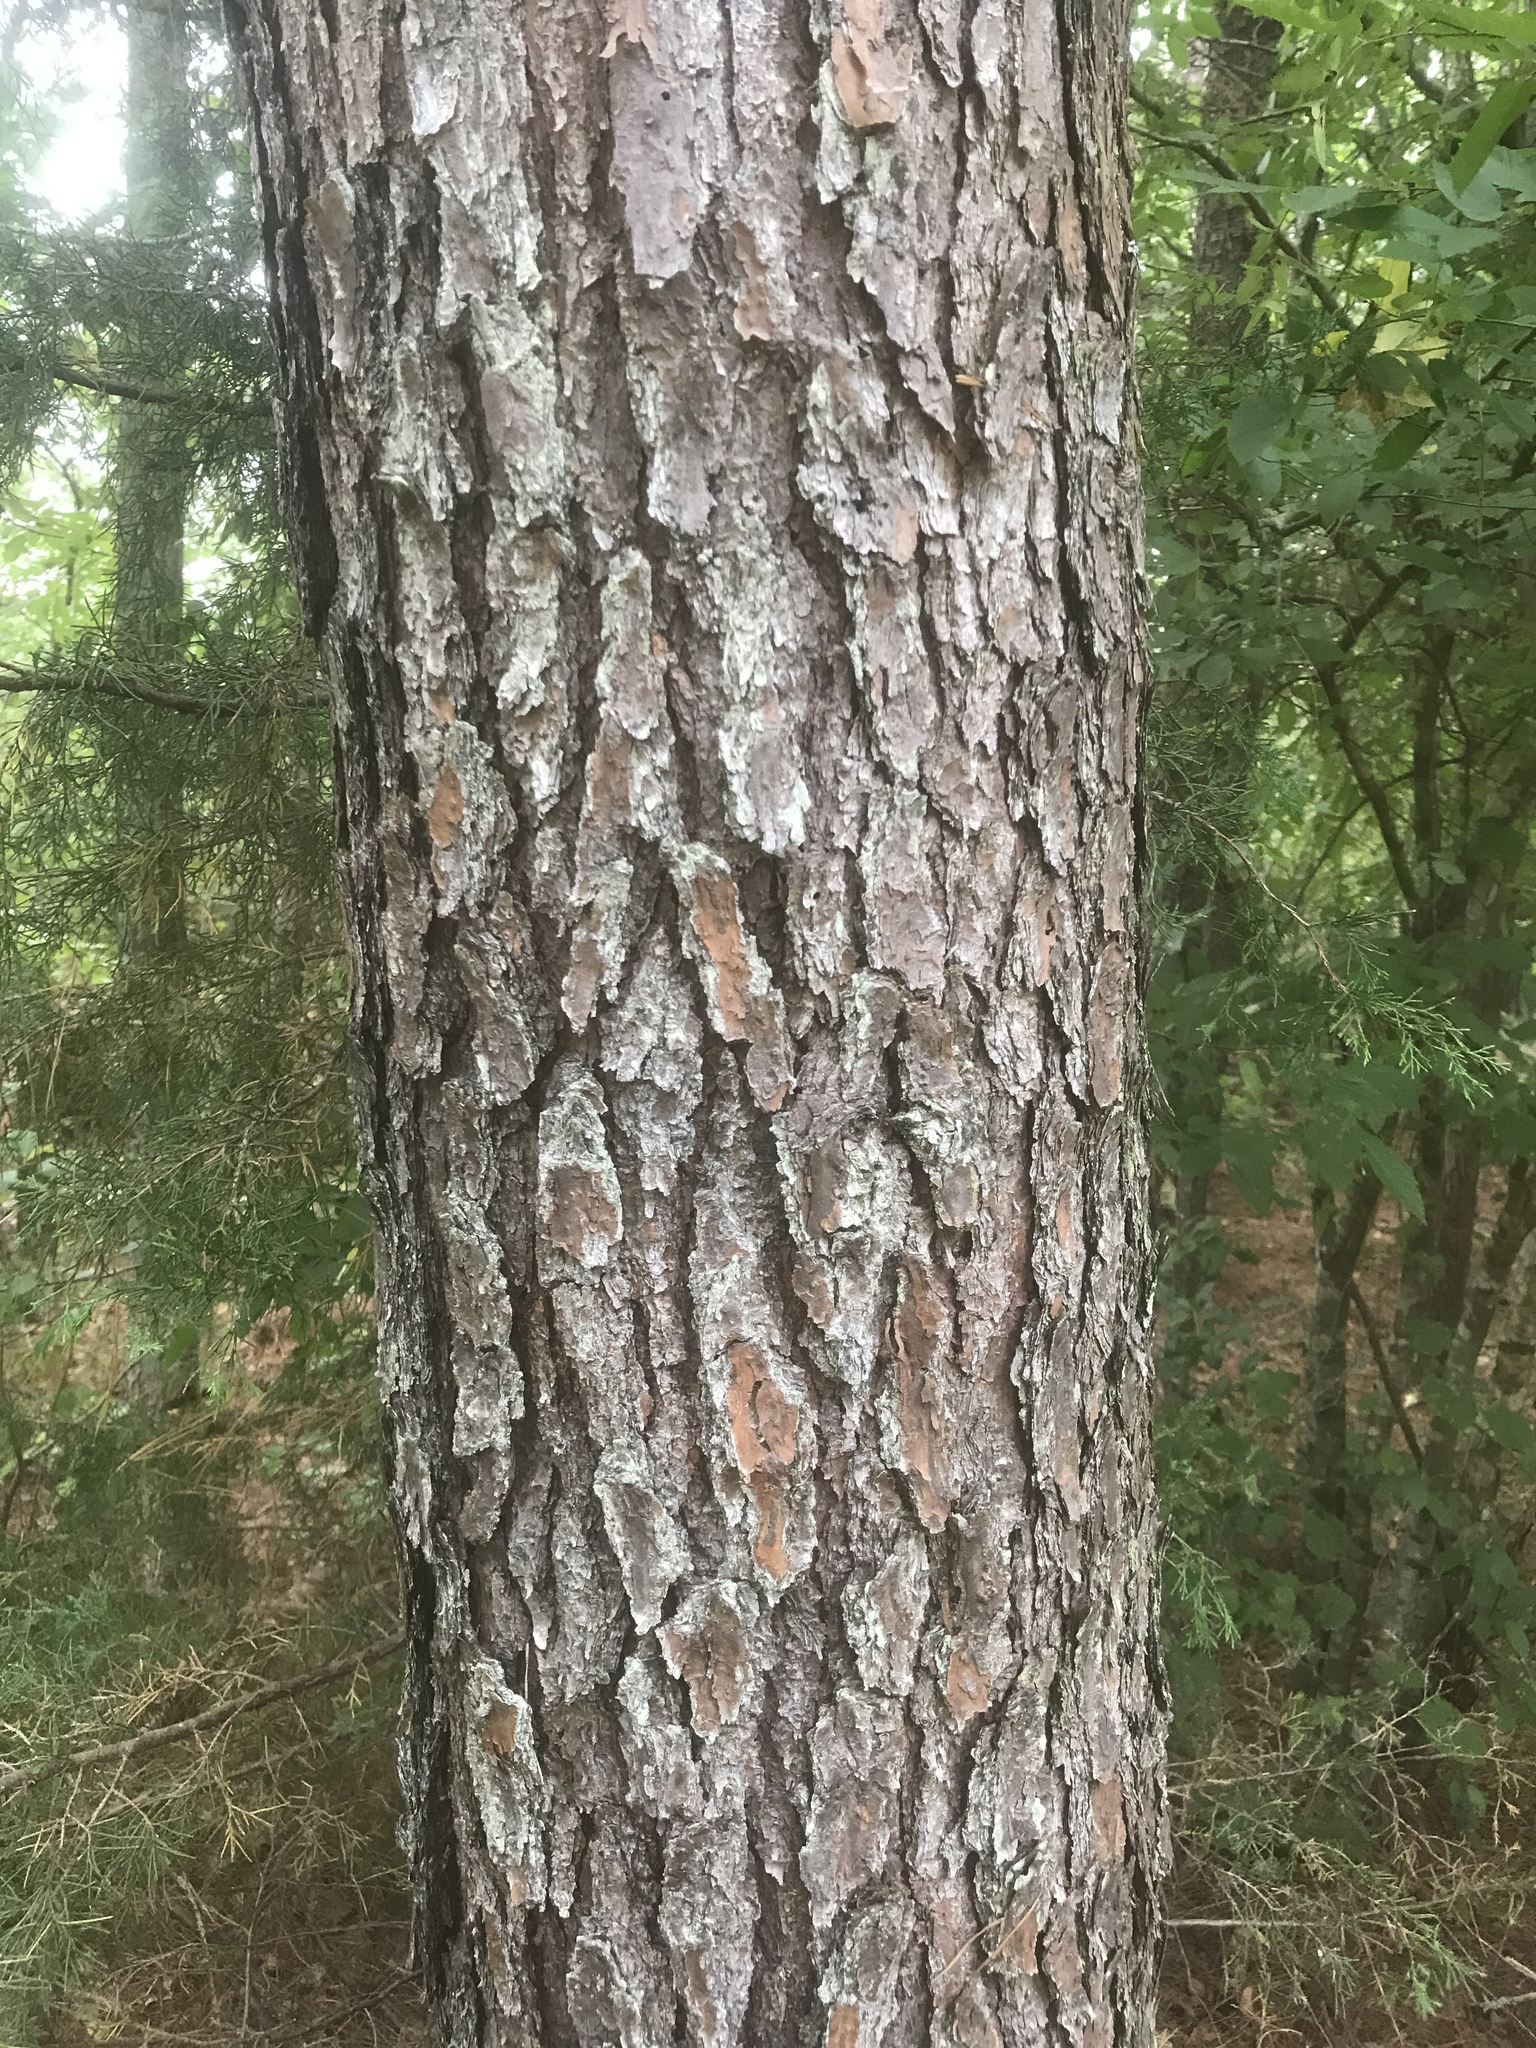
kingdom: Plantae
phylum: Tracheophyta
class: Pinopsida
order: Pinales
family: Pinaceae
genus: Pinus
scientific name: Pinus virginiana
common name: Scrub pine
